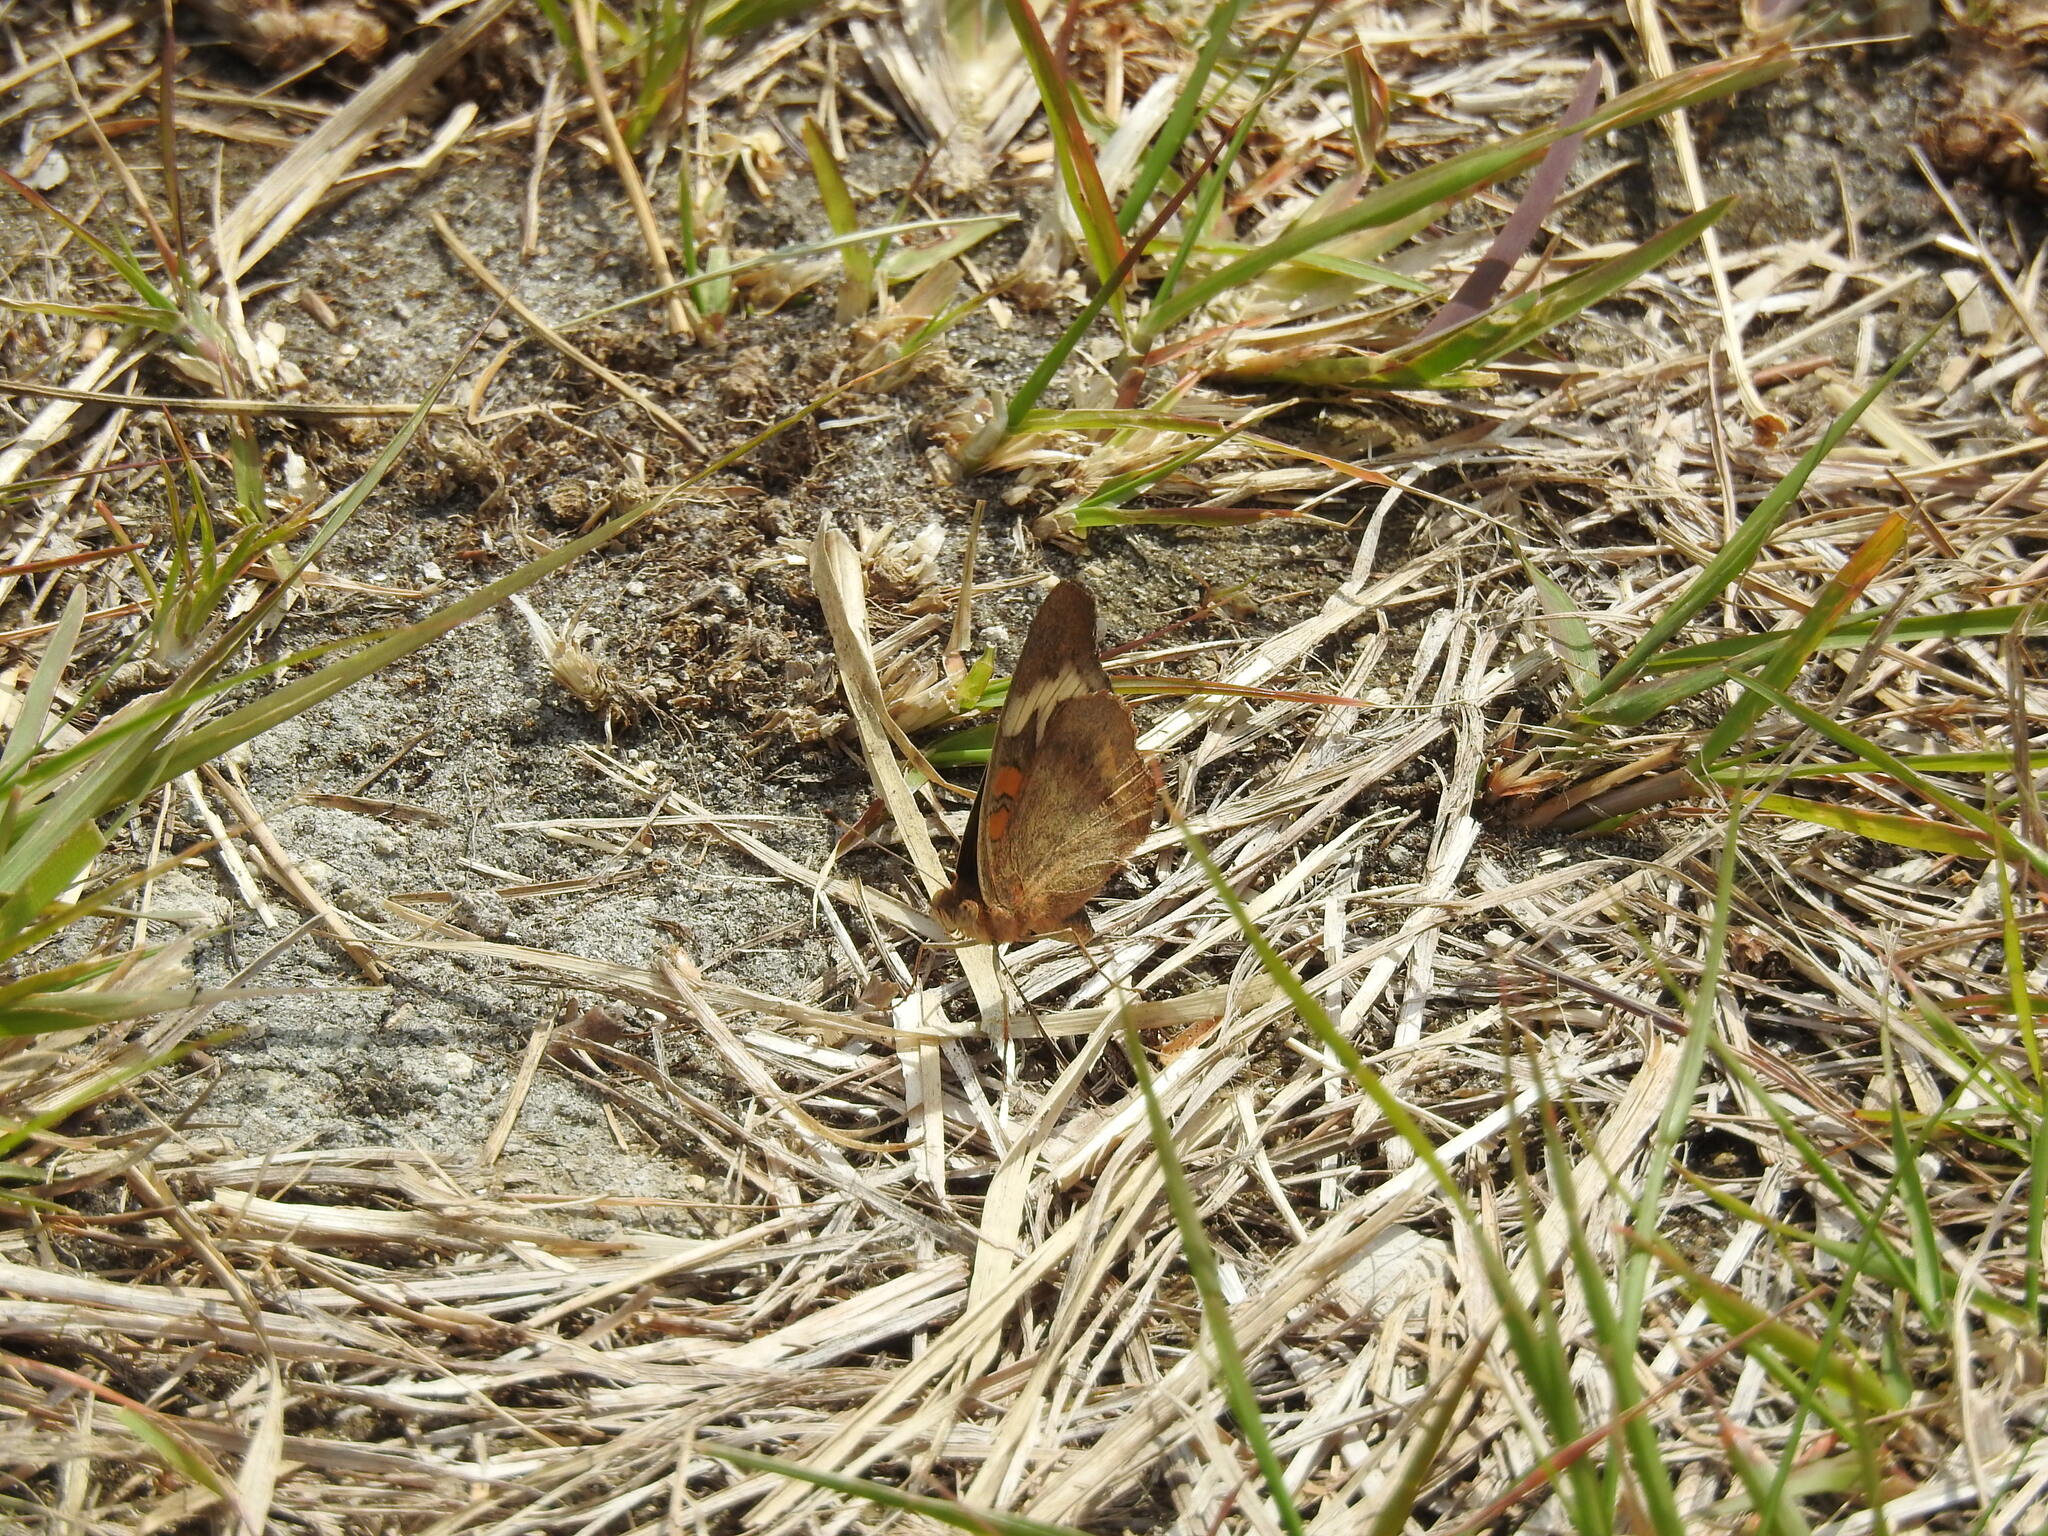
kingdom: Animalia
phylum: Arthropoda
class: Insecta
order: Lepidoptera
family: Nymphalidae
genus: Junonia
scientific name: Junonia coenia
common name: Common buckeye
